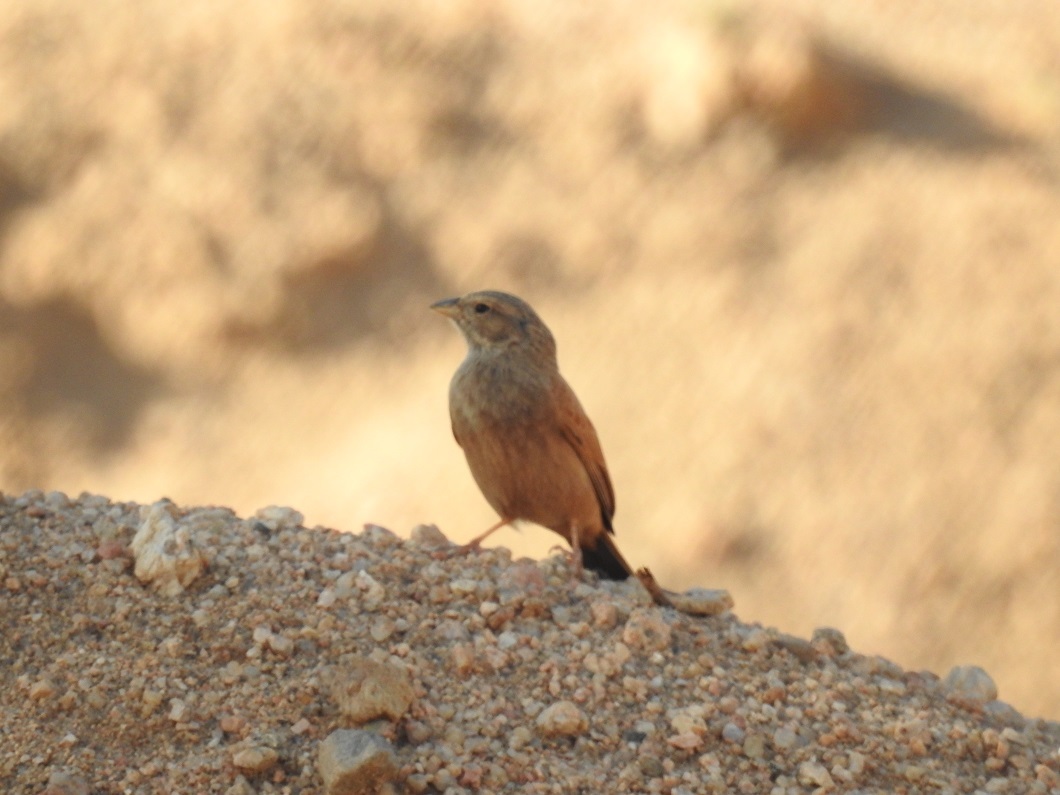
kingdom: Animalia
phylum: Chordata
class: Aves
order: Passeriformes
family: Emberizidae
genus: Emberiza
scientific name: Emberiza sahari
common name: House bunting
